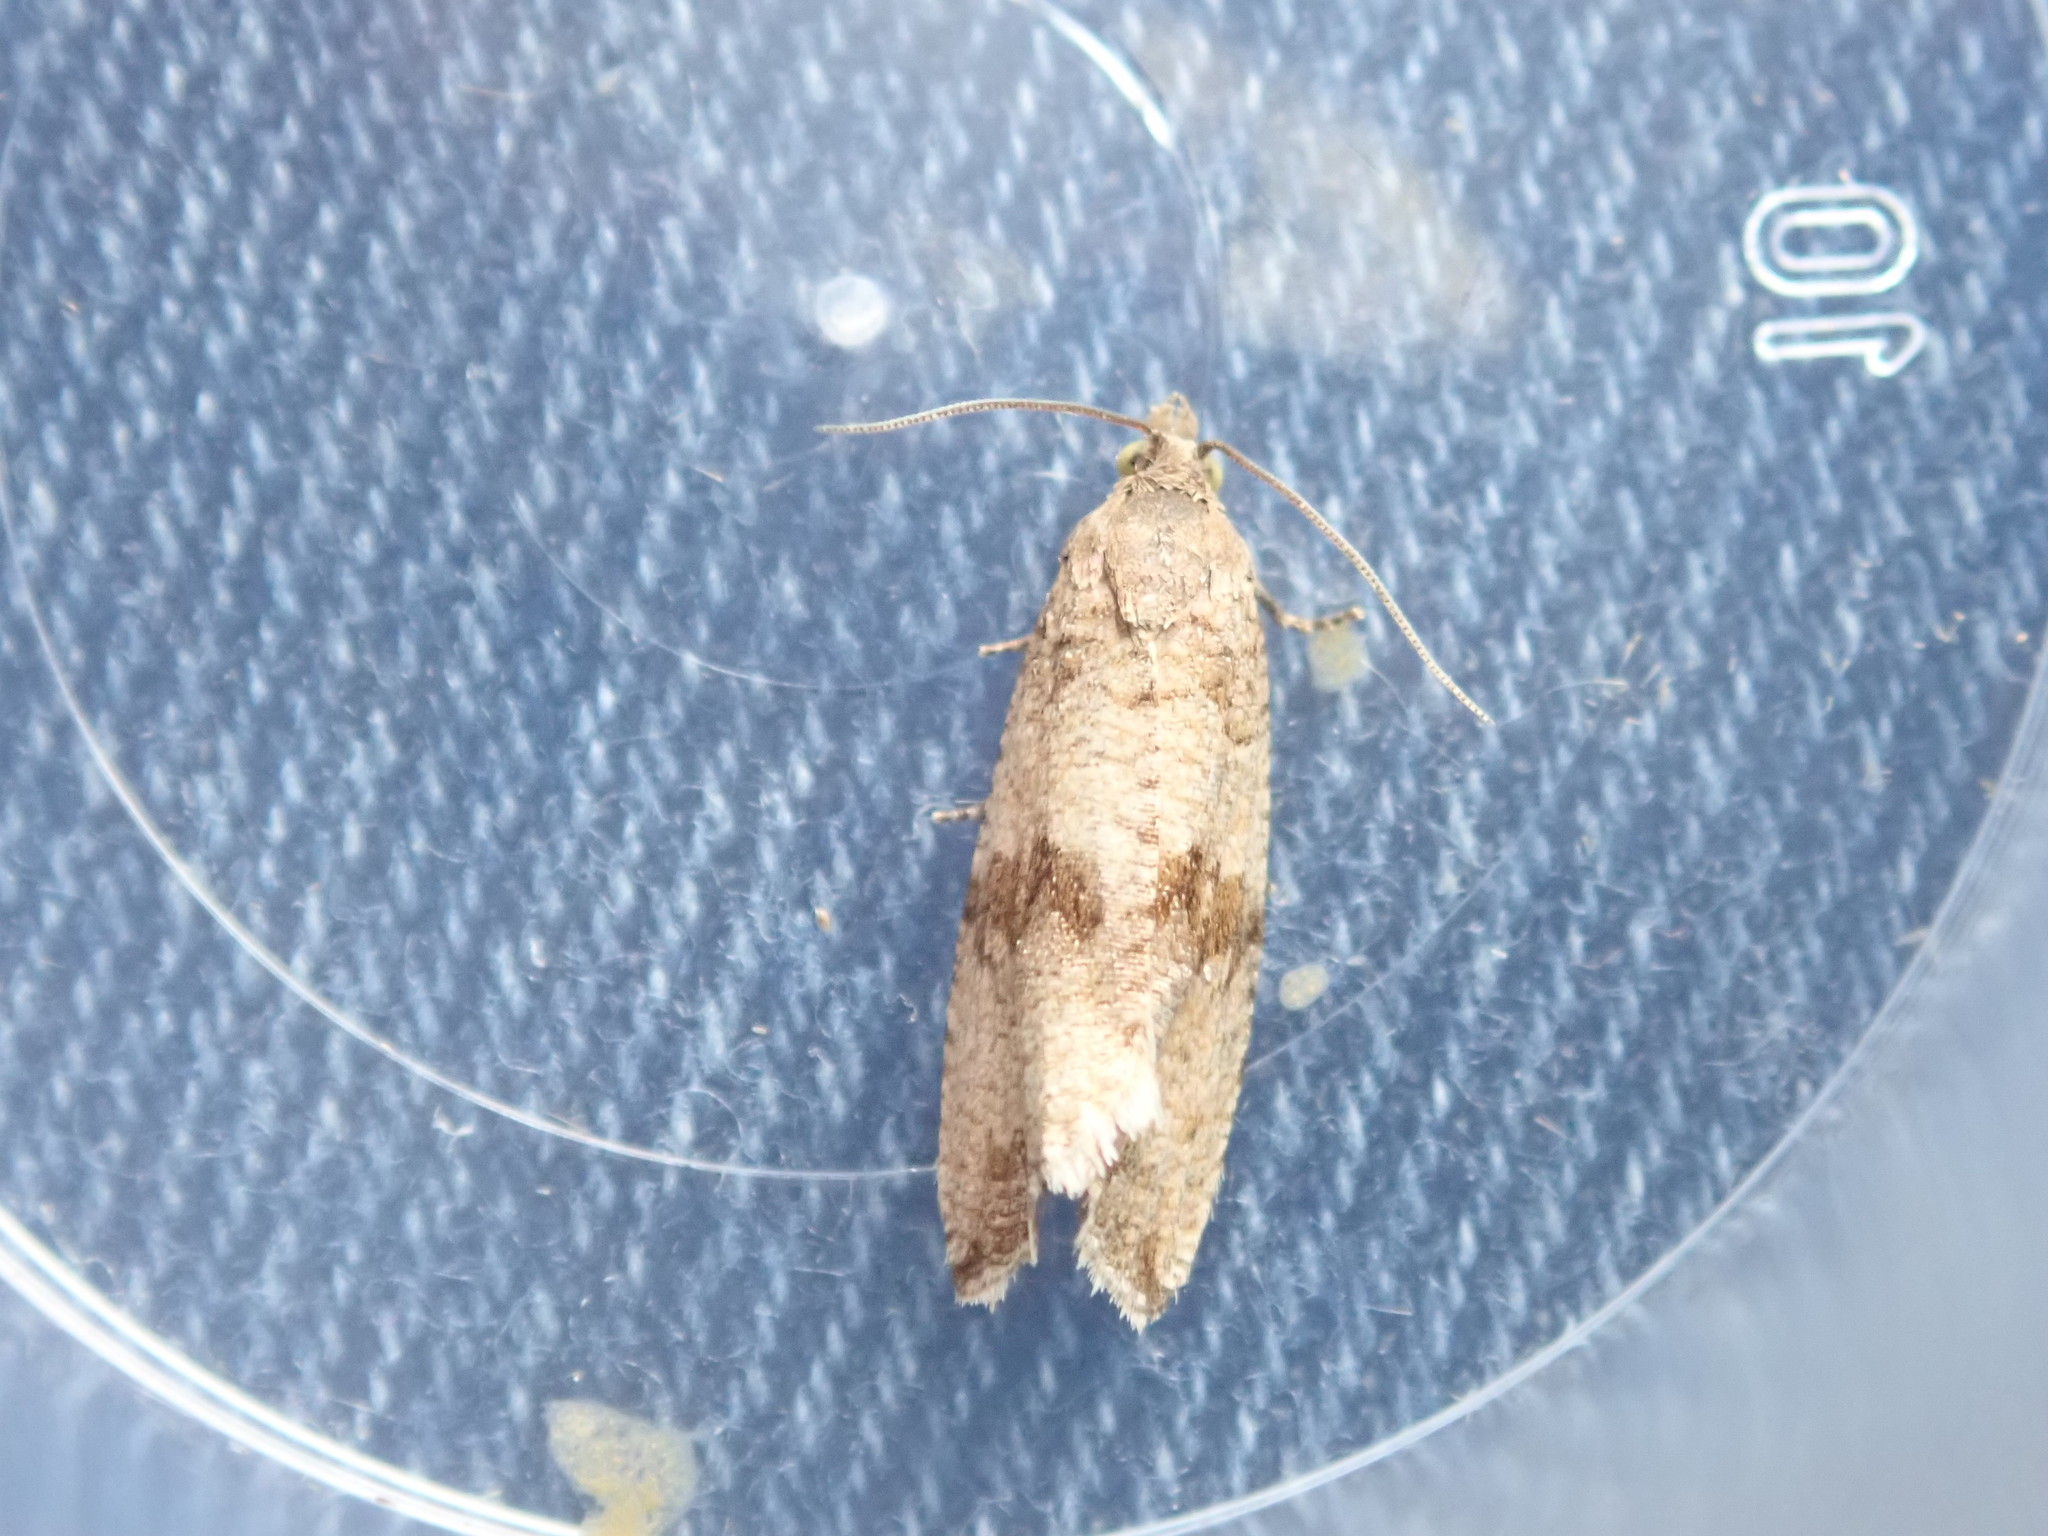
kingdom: Animalia
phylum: Arthropoda
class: Insecta
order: Lepidoptera
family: Tortricidae
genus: Celypha
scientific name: Celypha striana
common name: Barred marble
